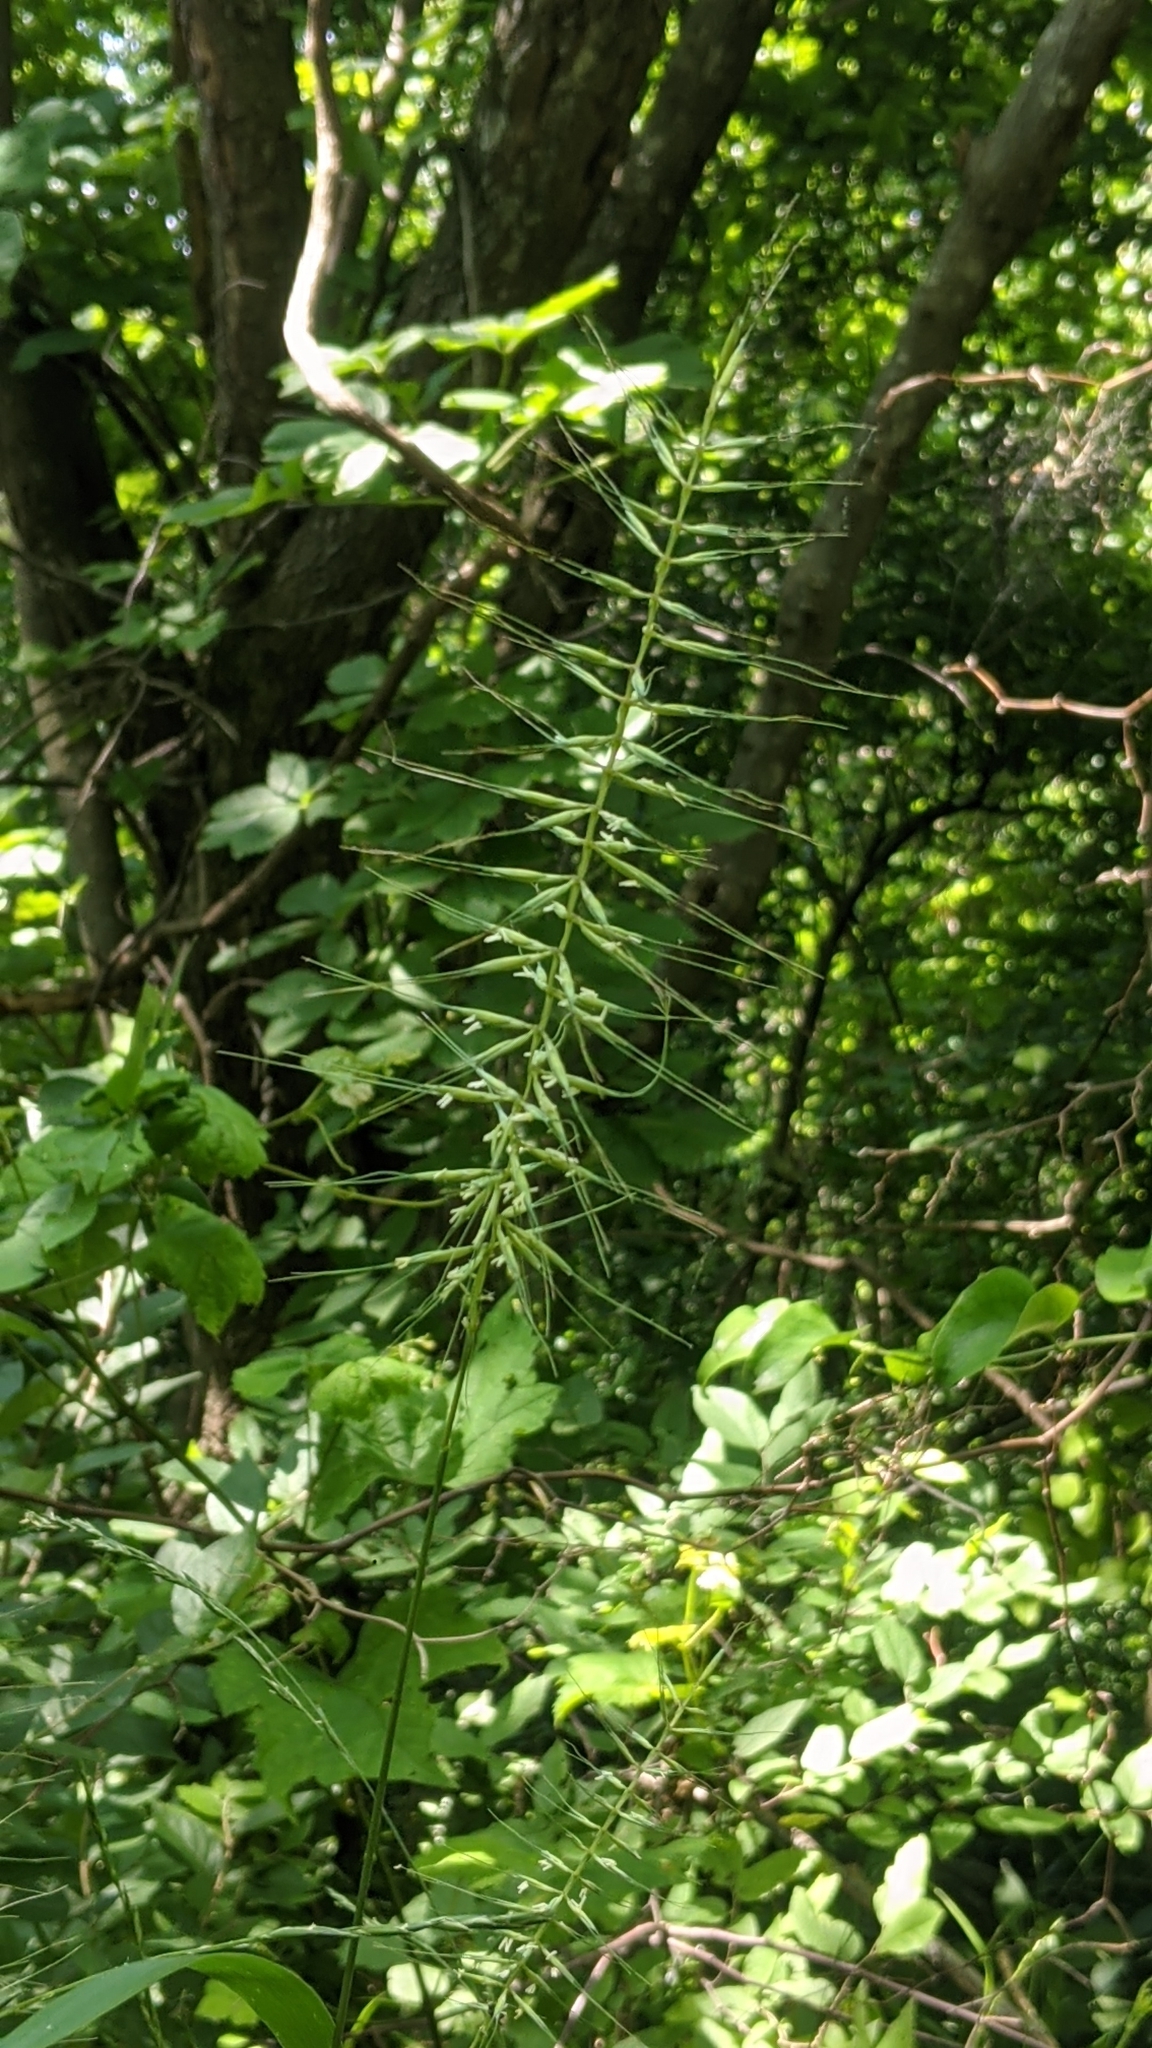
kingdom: Plantae
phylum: Tracheophyta
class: Liliopsida
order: Poales
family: Poaceae
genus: Elymus
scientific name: Elymus hystrix
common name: Bottlebrush grass
